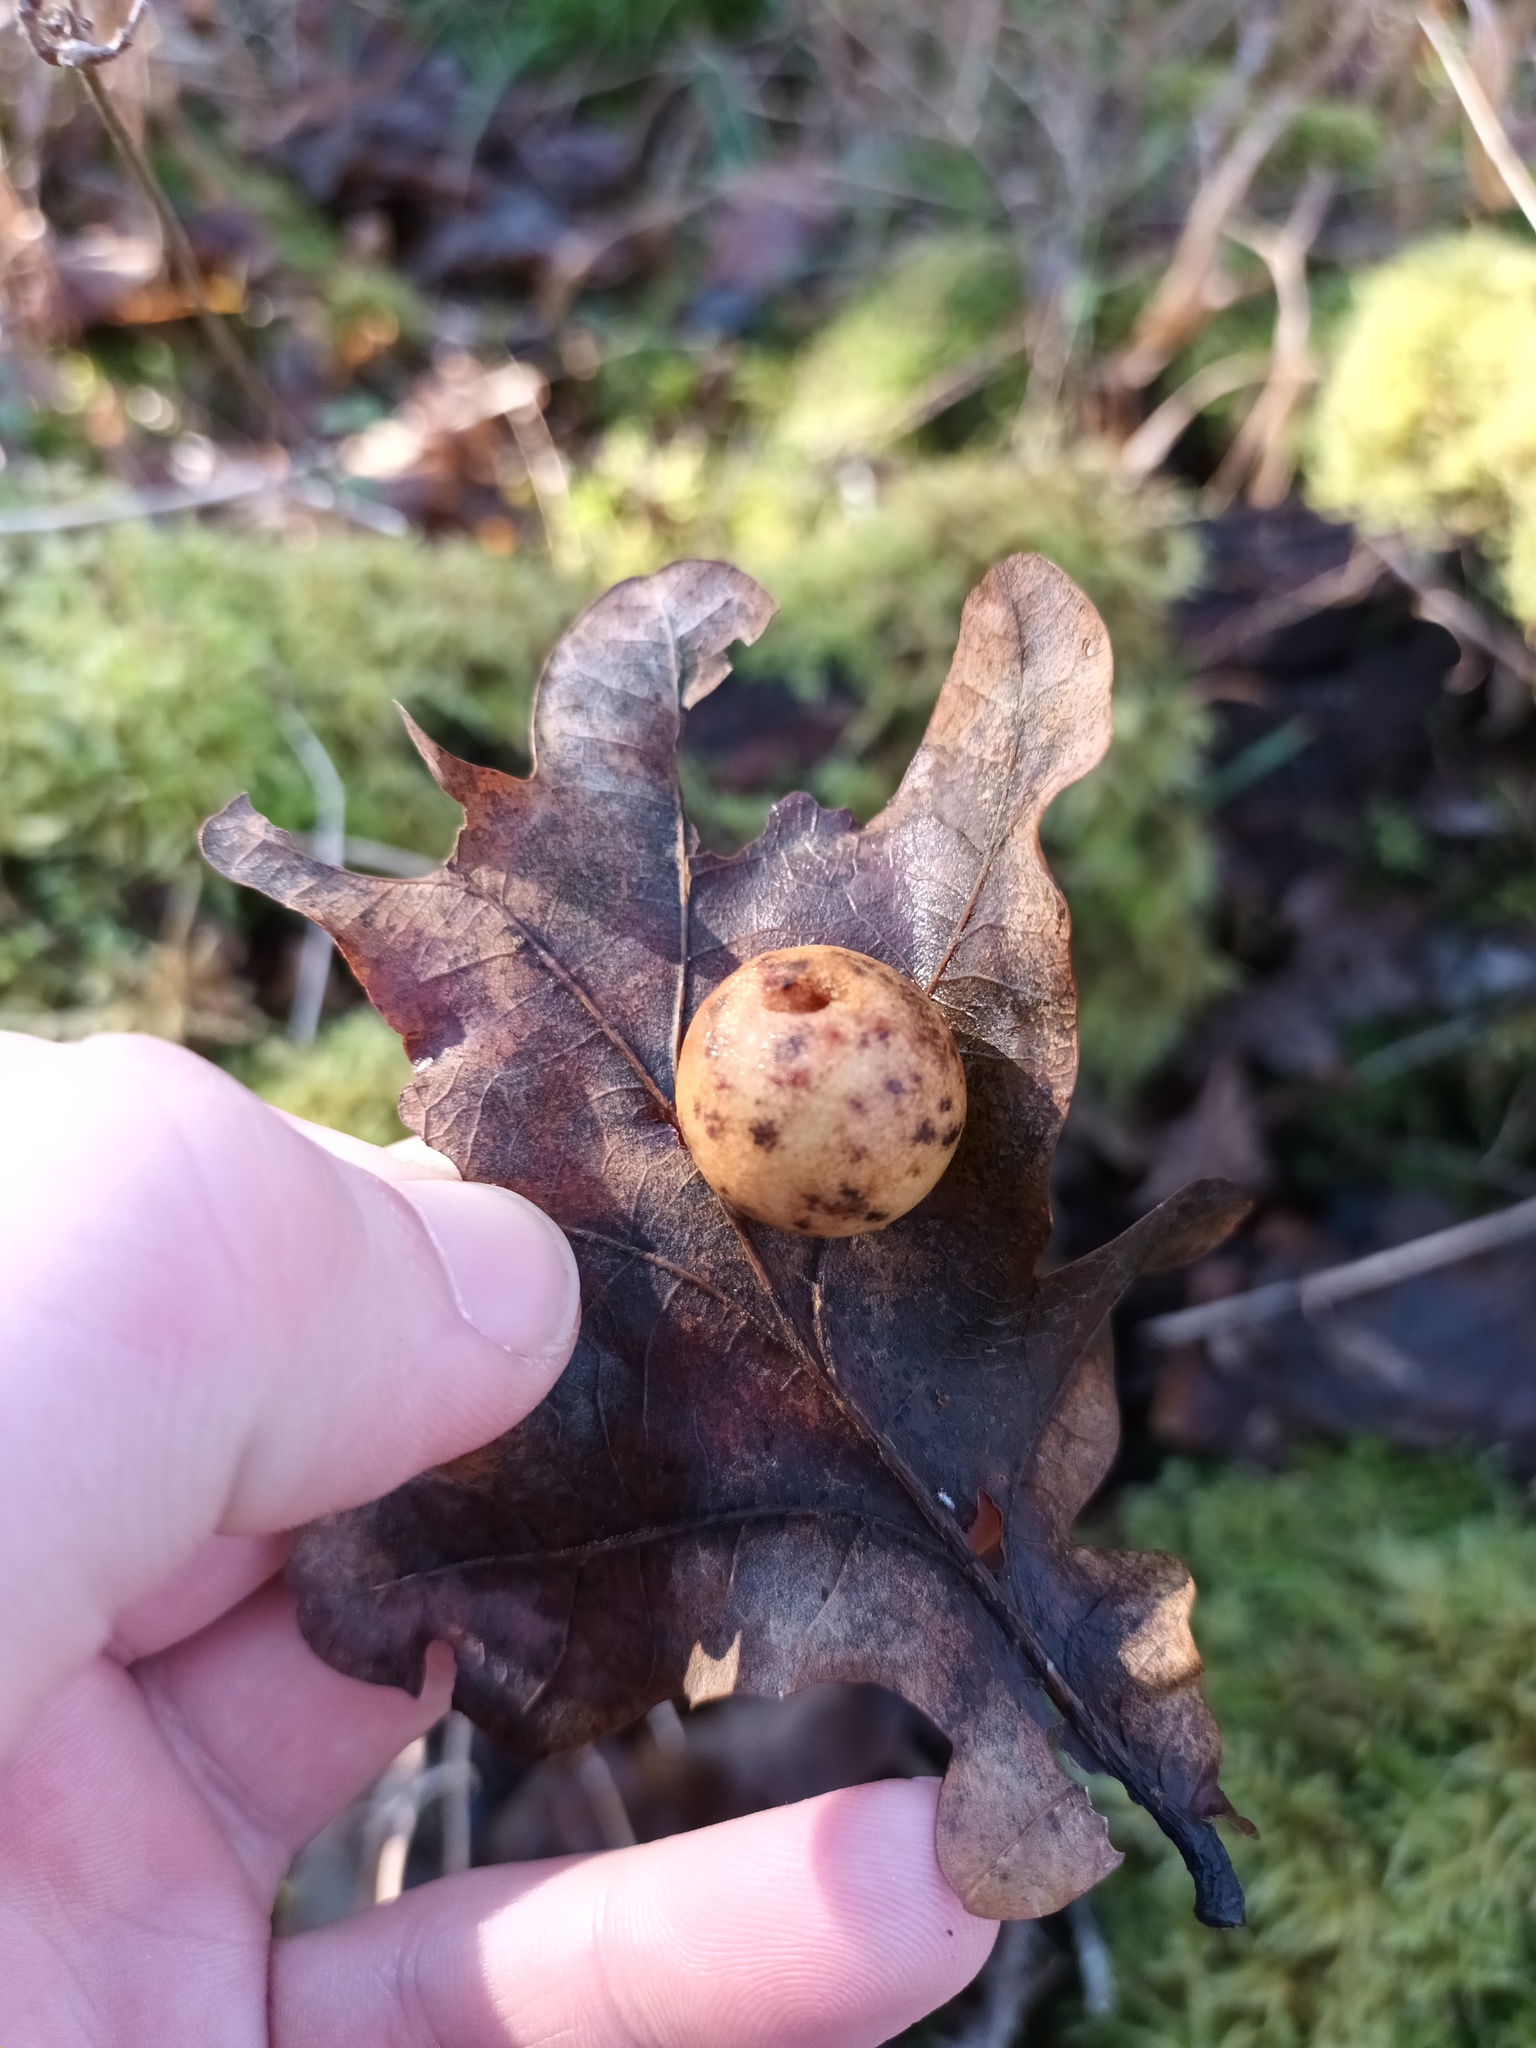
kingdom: Animalia
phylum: Arthropoda
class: Insecta
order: Hymenoptera
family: Cynipidae
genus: Cynips
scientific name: Cynips quercusfolii
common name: Cherry gall
